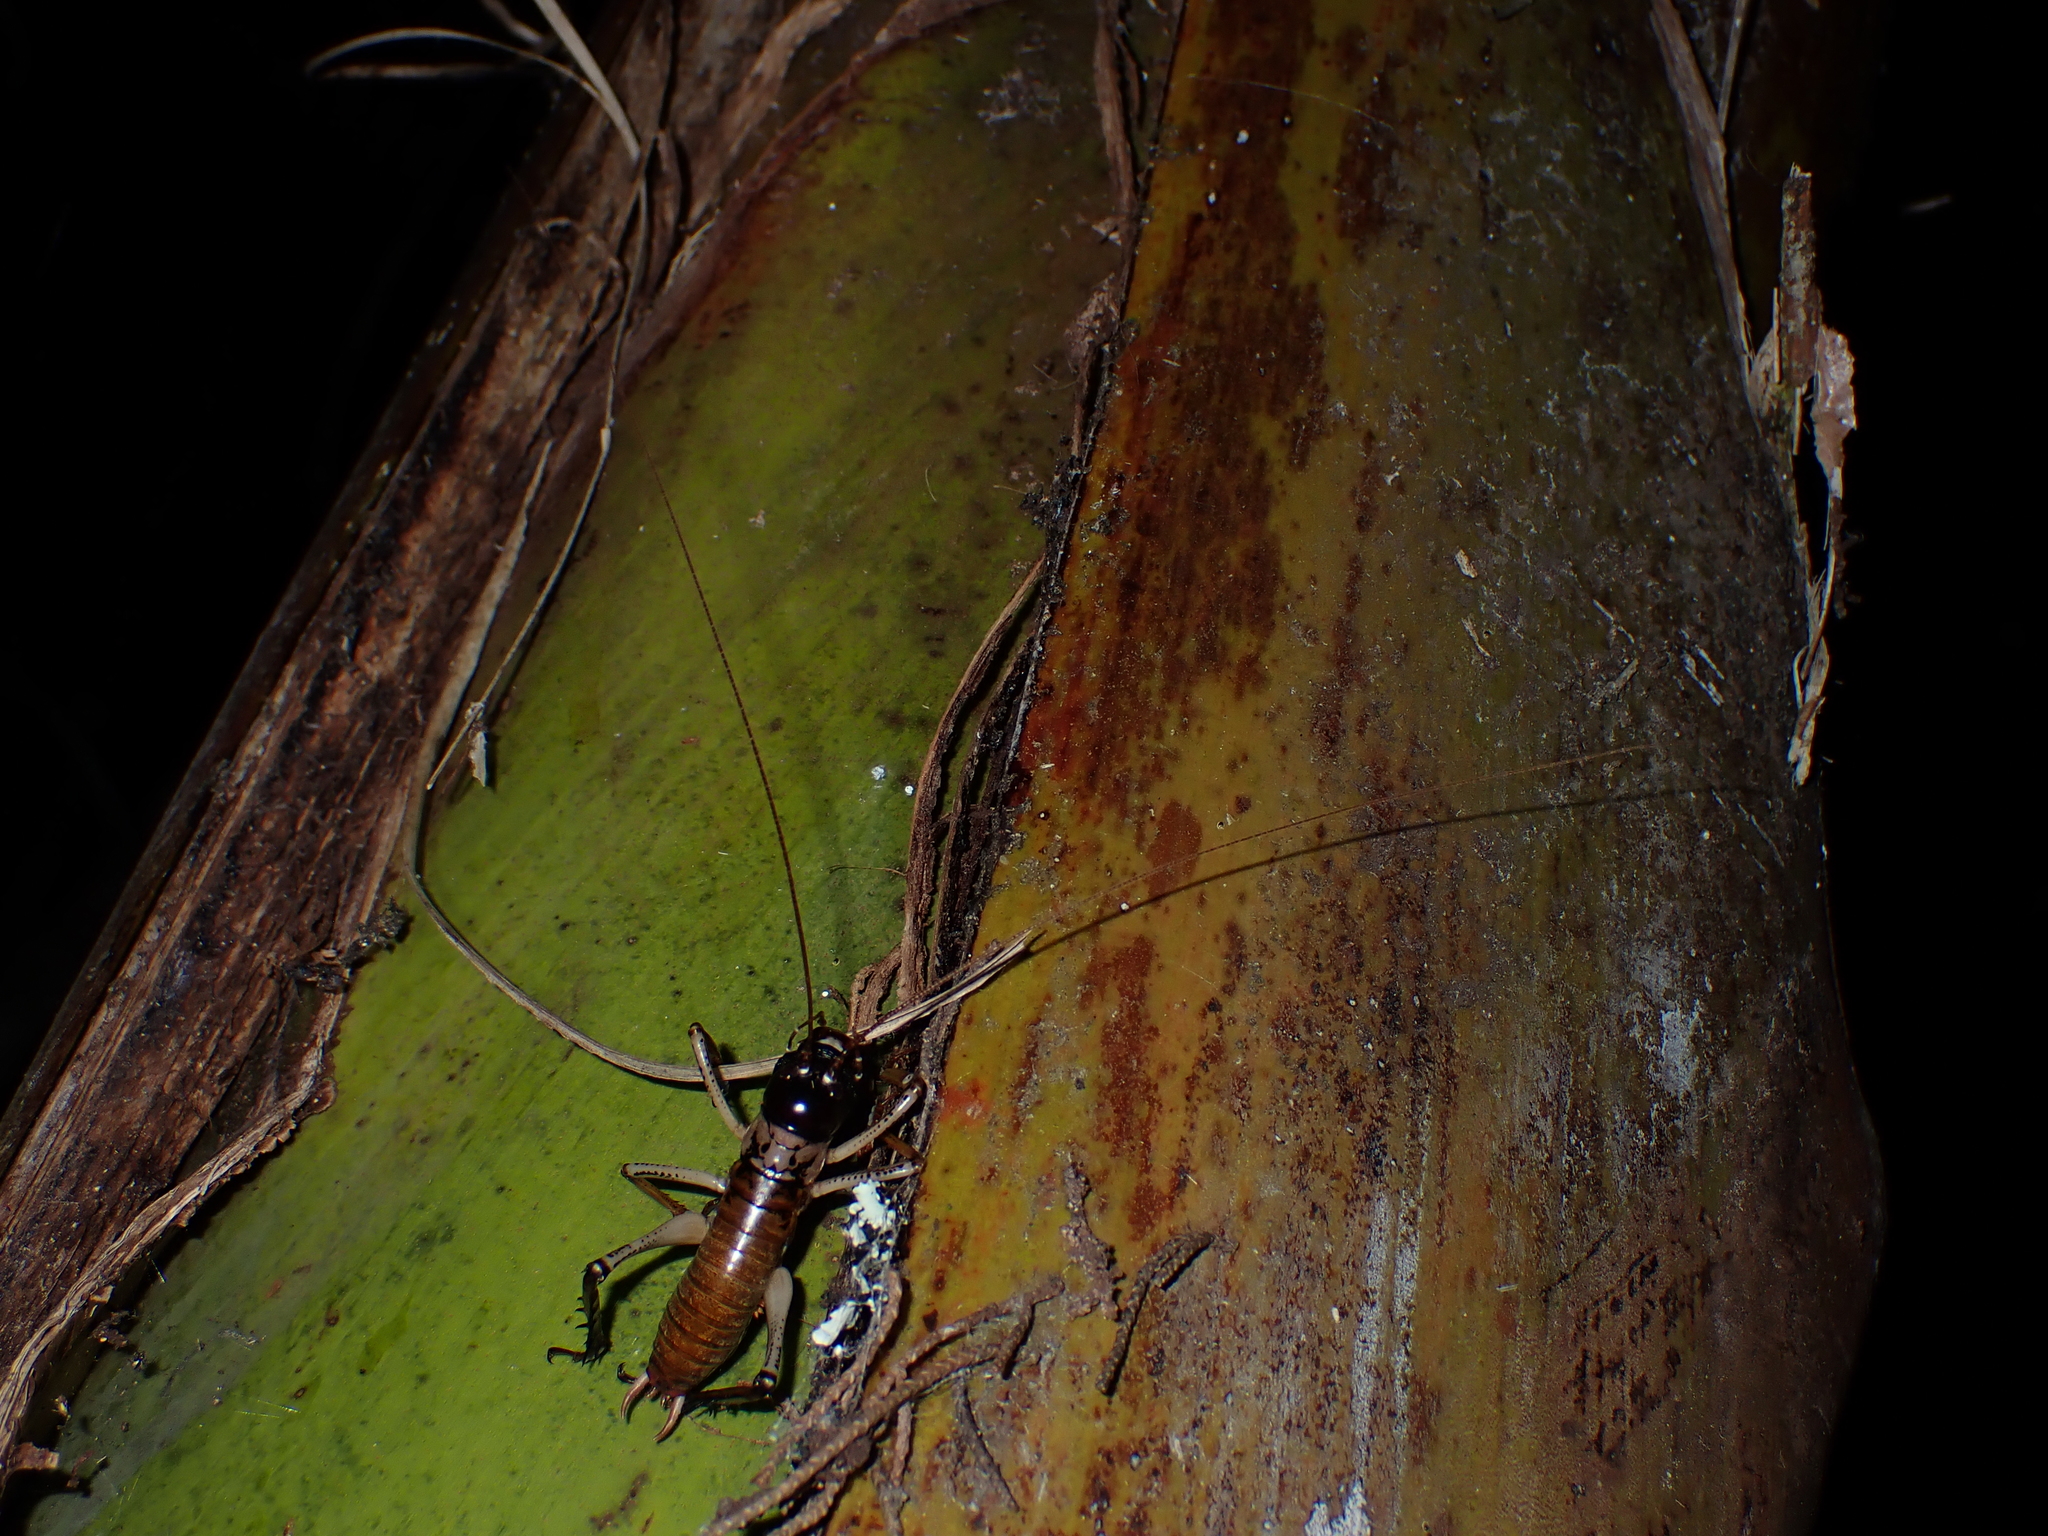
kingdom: Animalia
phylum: Arthropoda
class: Insecta
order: Orthoptera
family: Anostostomatidae
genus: Hemideina
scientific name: Hemideina thoracica
